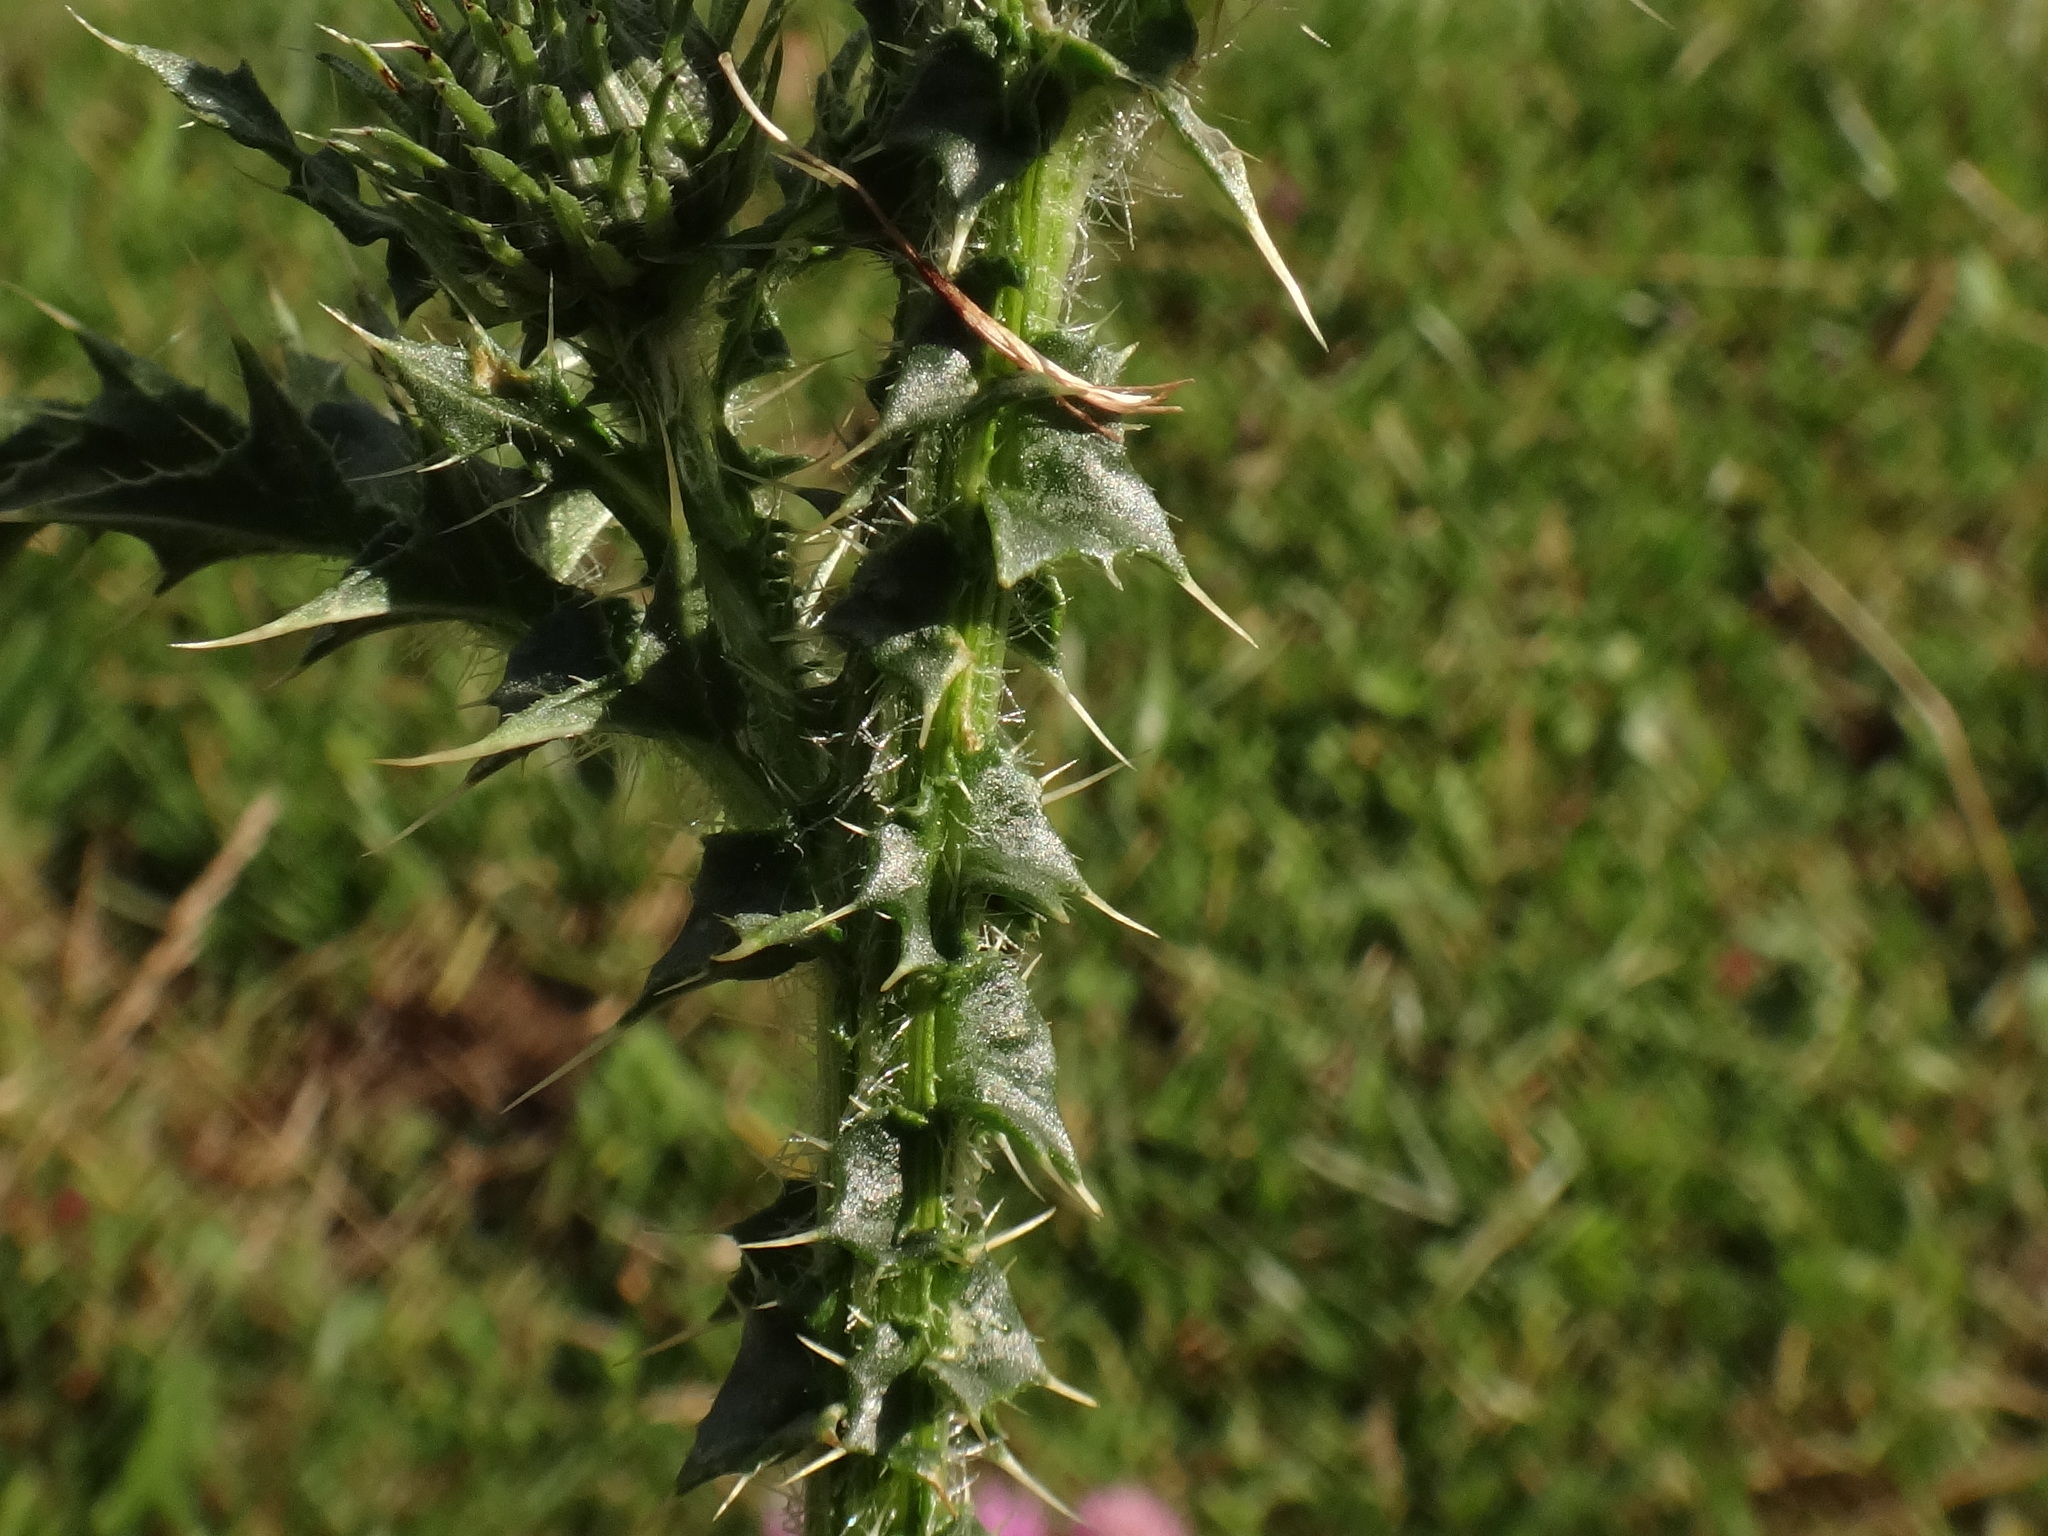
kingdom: Plantae
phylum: Tracheophyta
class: Magnoliopsida
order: Asterales
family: Asteraceae
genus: Carduus
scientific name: Carduus acanthoides
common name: Plumeless thistle
